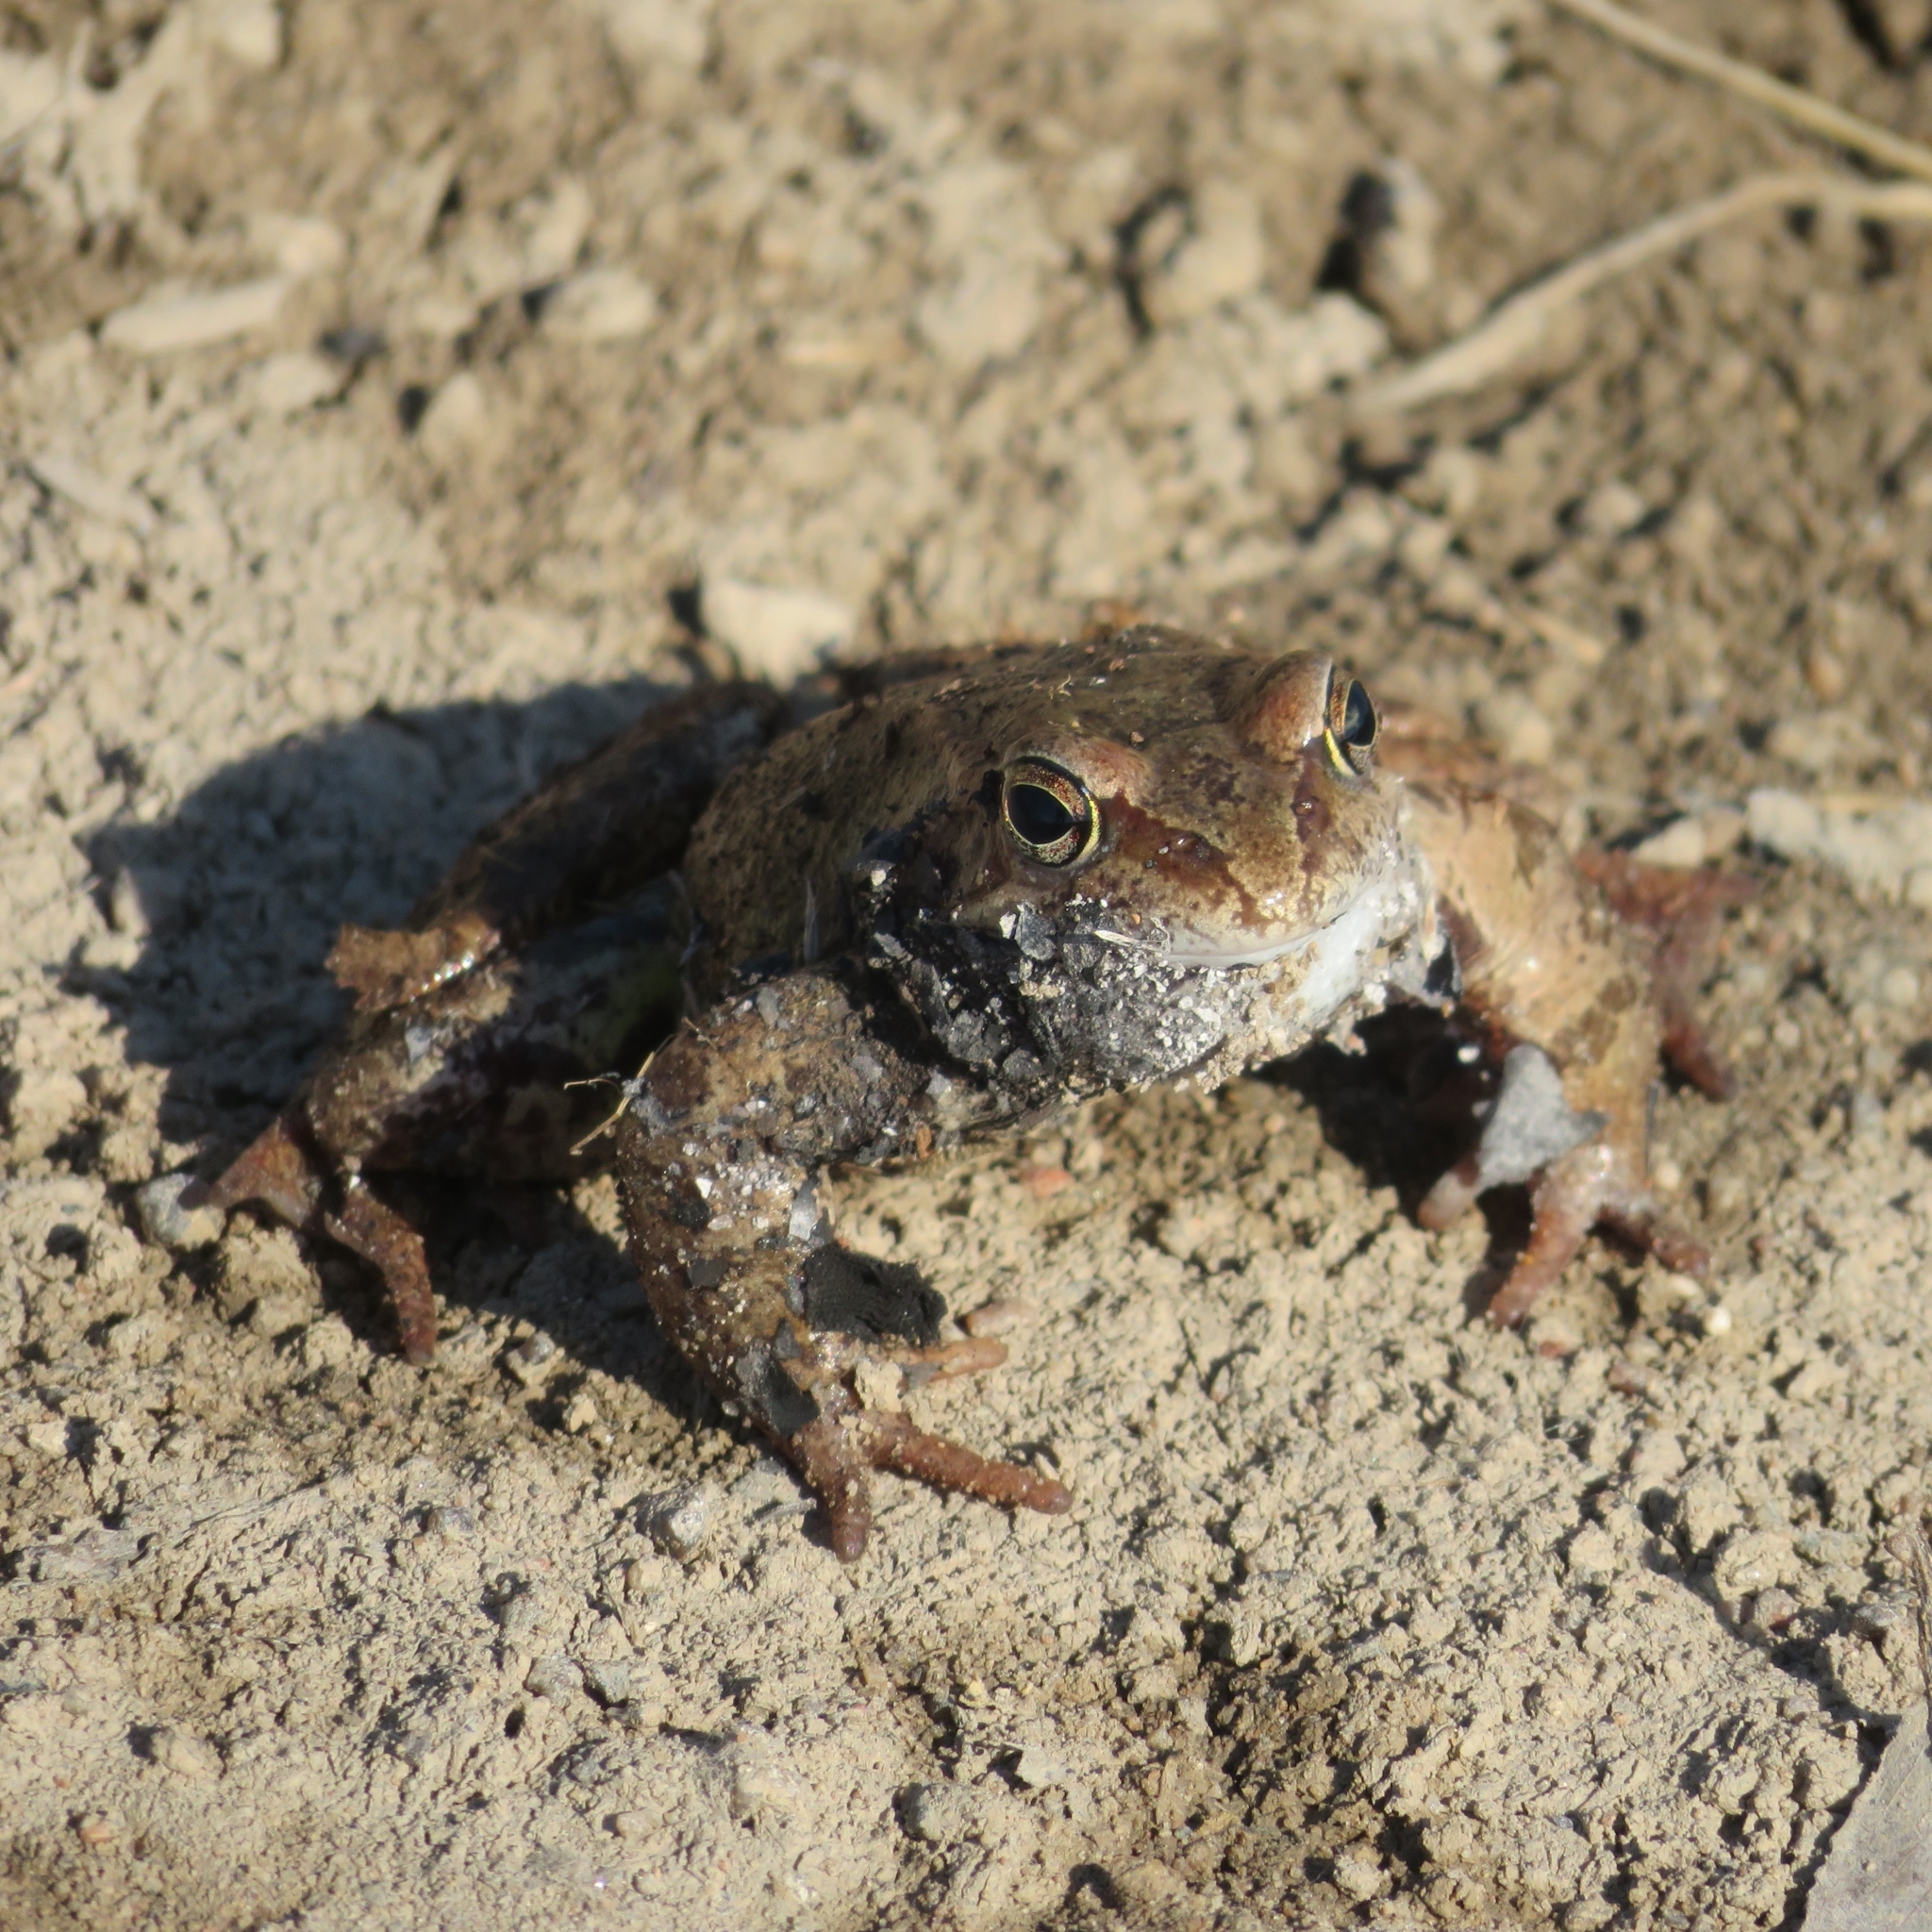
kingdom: Animalia
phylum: Chordata
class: Amphibia
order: Anura
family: Ranidae
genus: Rana
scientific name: Rana temporaria
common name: Common frog
